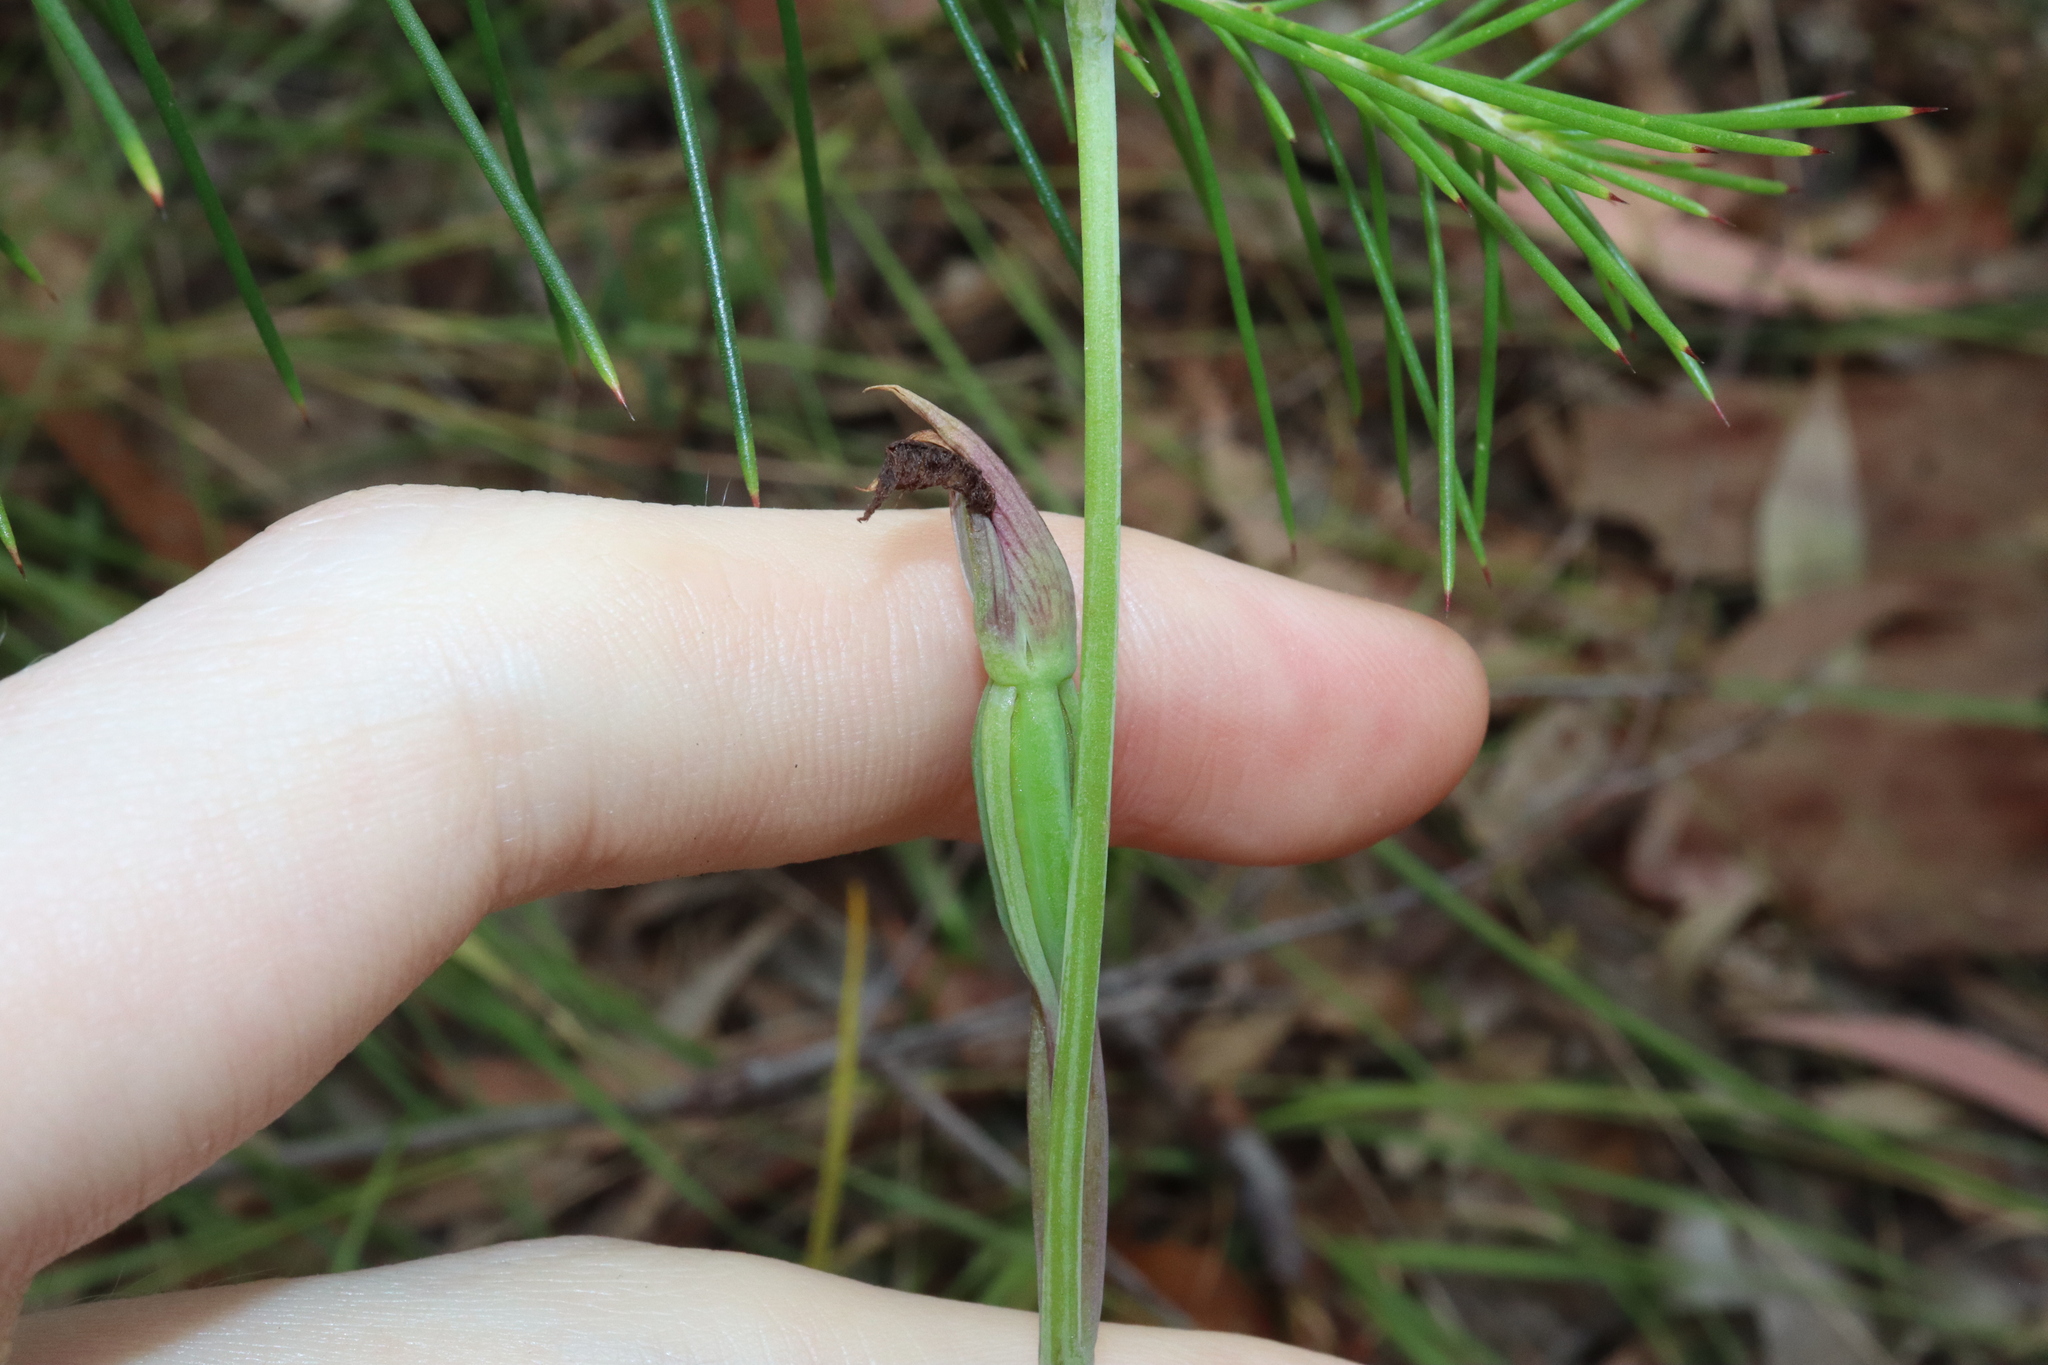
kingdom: Plantae
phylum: Tracheophyta
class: Liliopsida
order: Asparagales
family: Orchidaceae
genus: Calochilus
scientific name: Calochilus robertsonii
